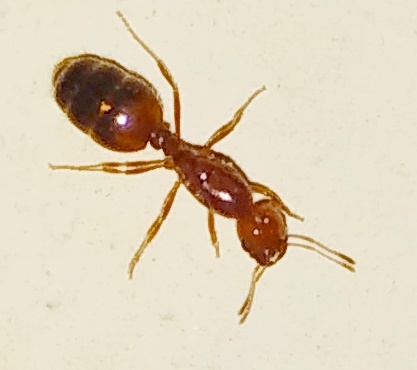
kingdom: Animalia
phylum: Arthropoda
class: Insecta
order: Hymenoptera
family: Formicidae
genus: Solenopsis
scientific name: Solenopsis geminata
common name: Tropical fire ant
